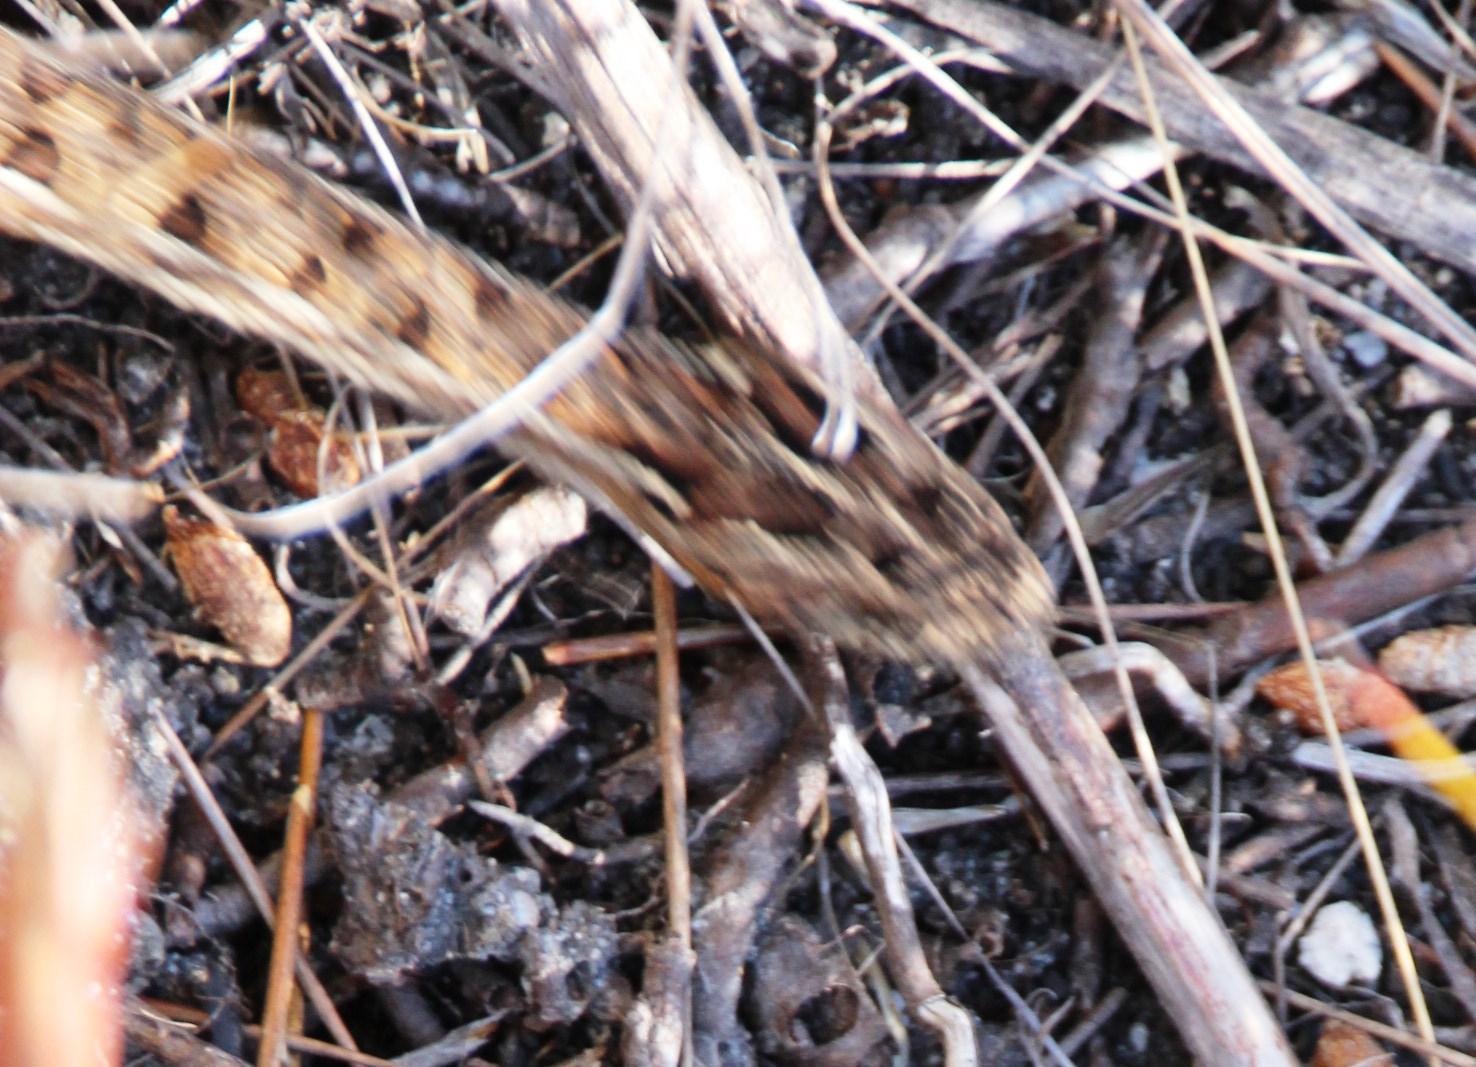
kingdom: Animalia
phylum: Chordata
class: Squamata
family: Viperidae
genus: Bitis
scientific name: Bitis atropos
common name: Mountain adder
